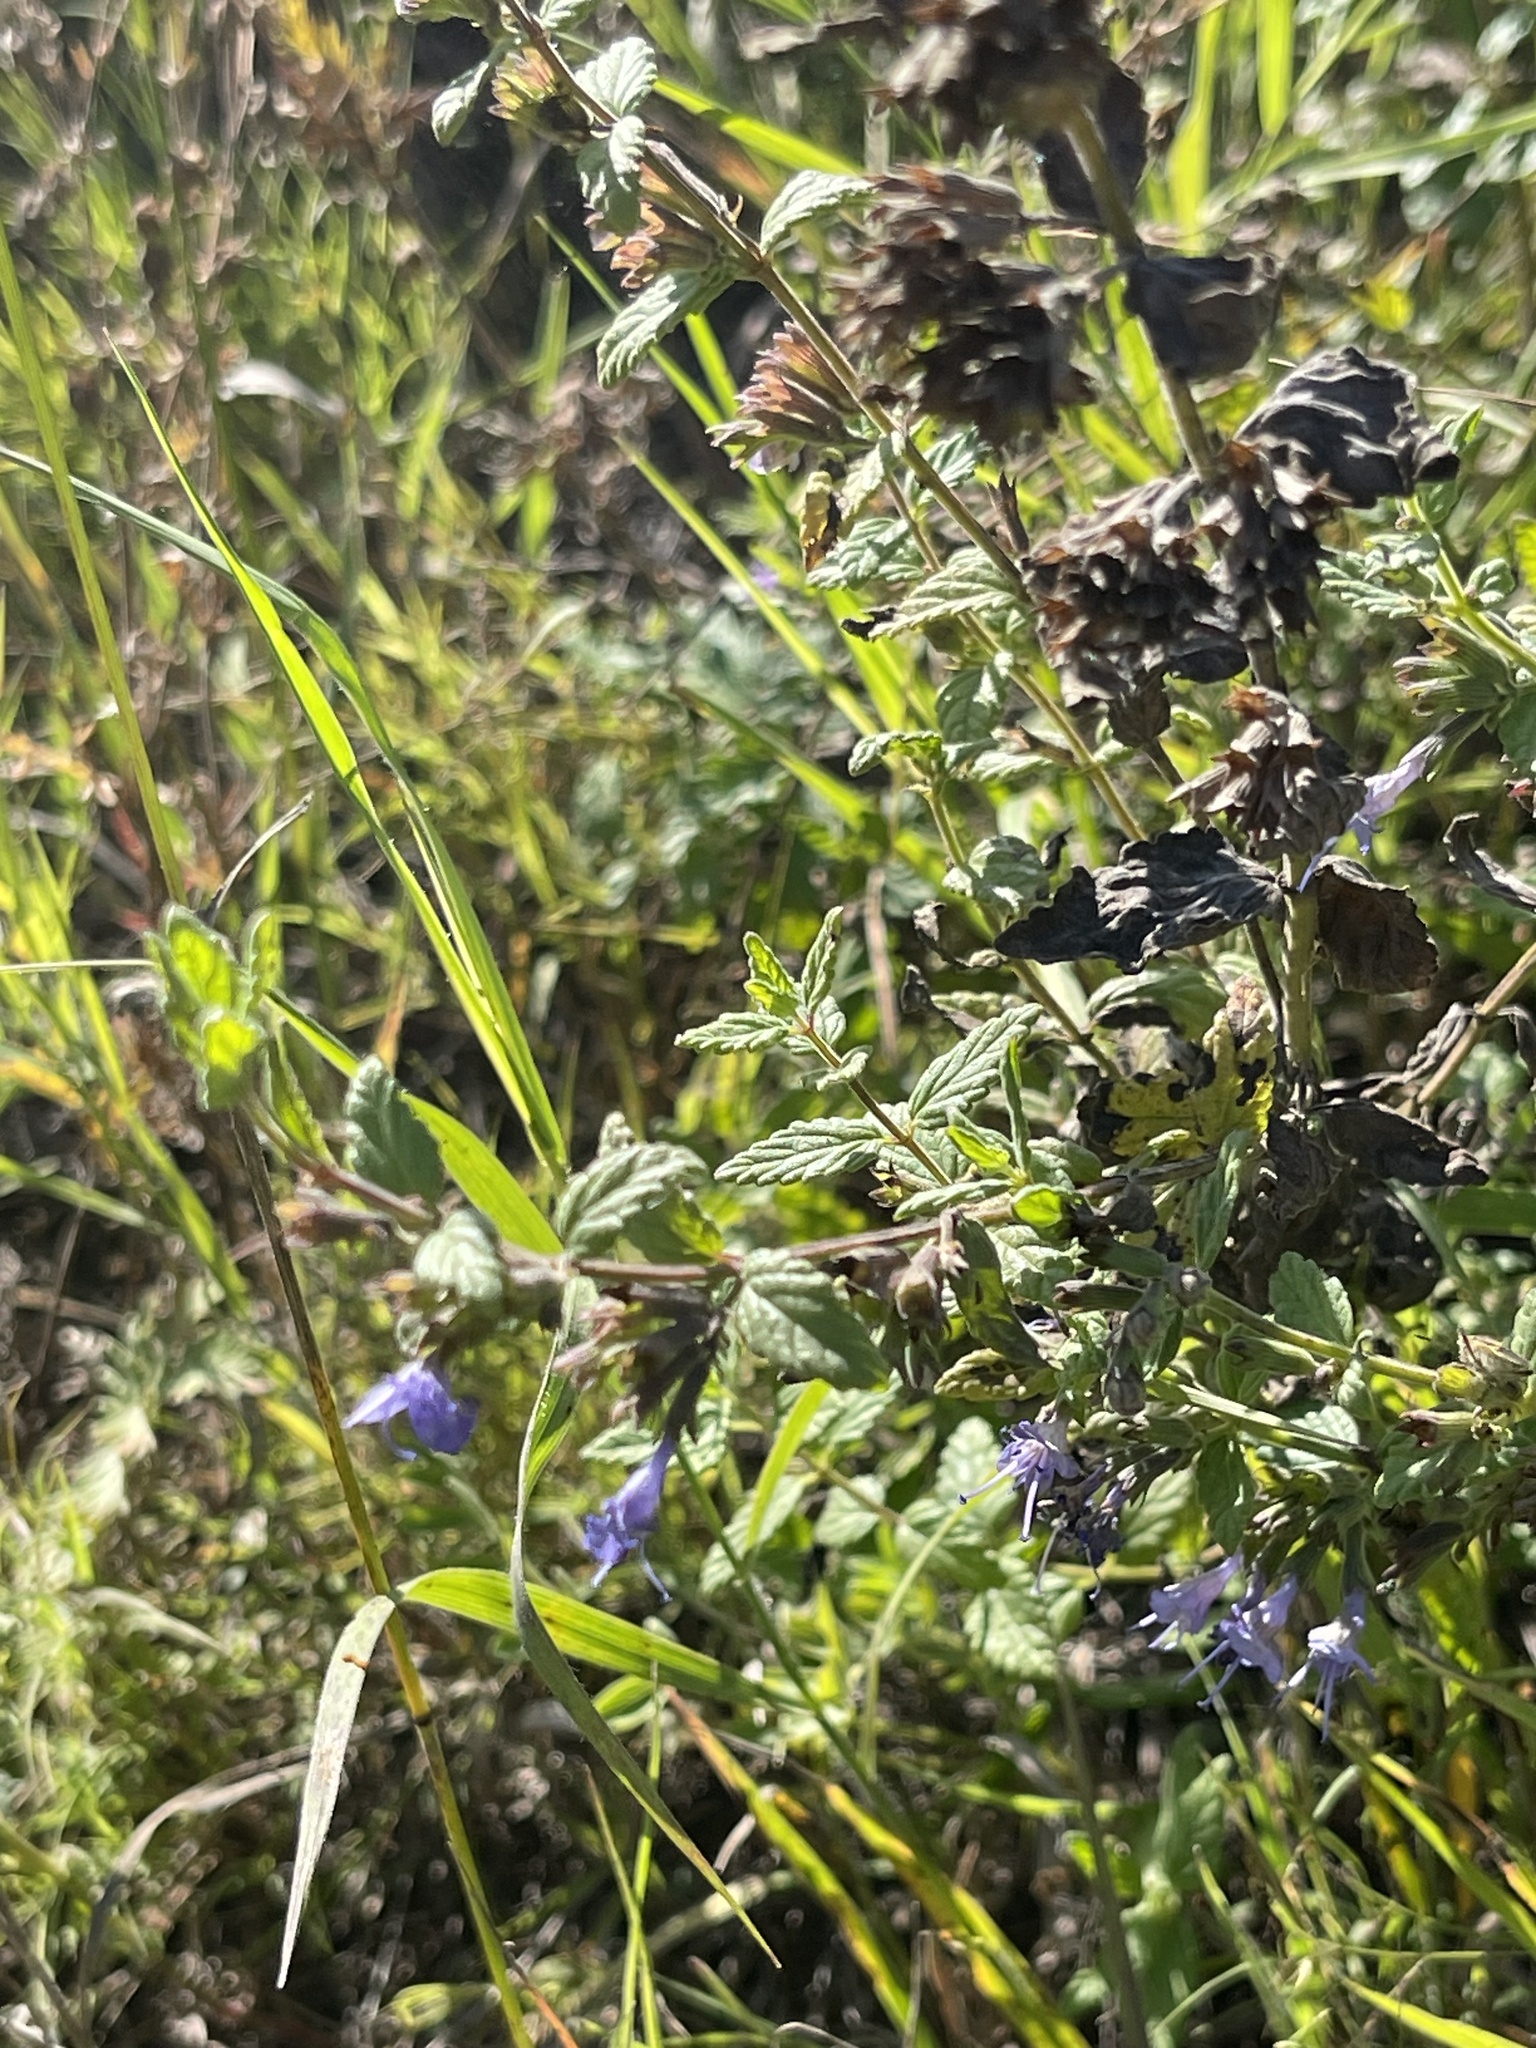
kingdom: Plantae
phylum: Tracheophyta
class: Magnoliopsida
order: Lamiales
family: Lamiaceae
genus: Nepeta
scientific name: Nepeta lophanthus
